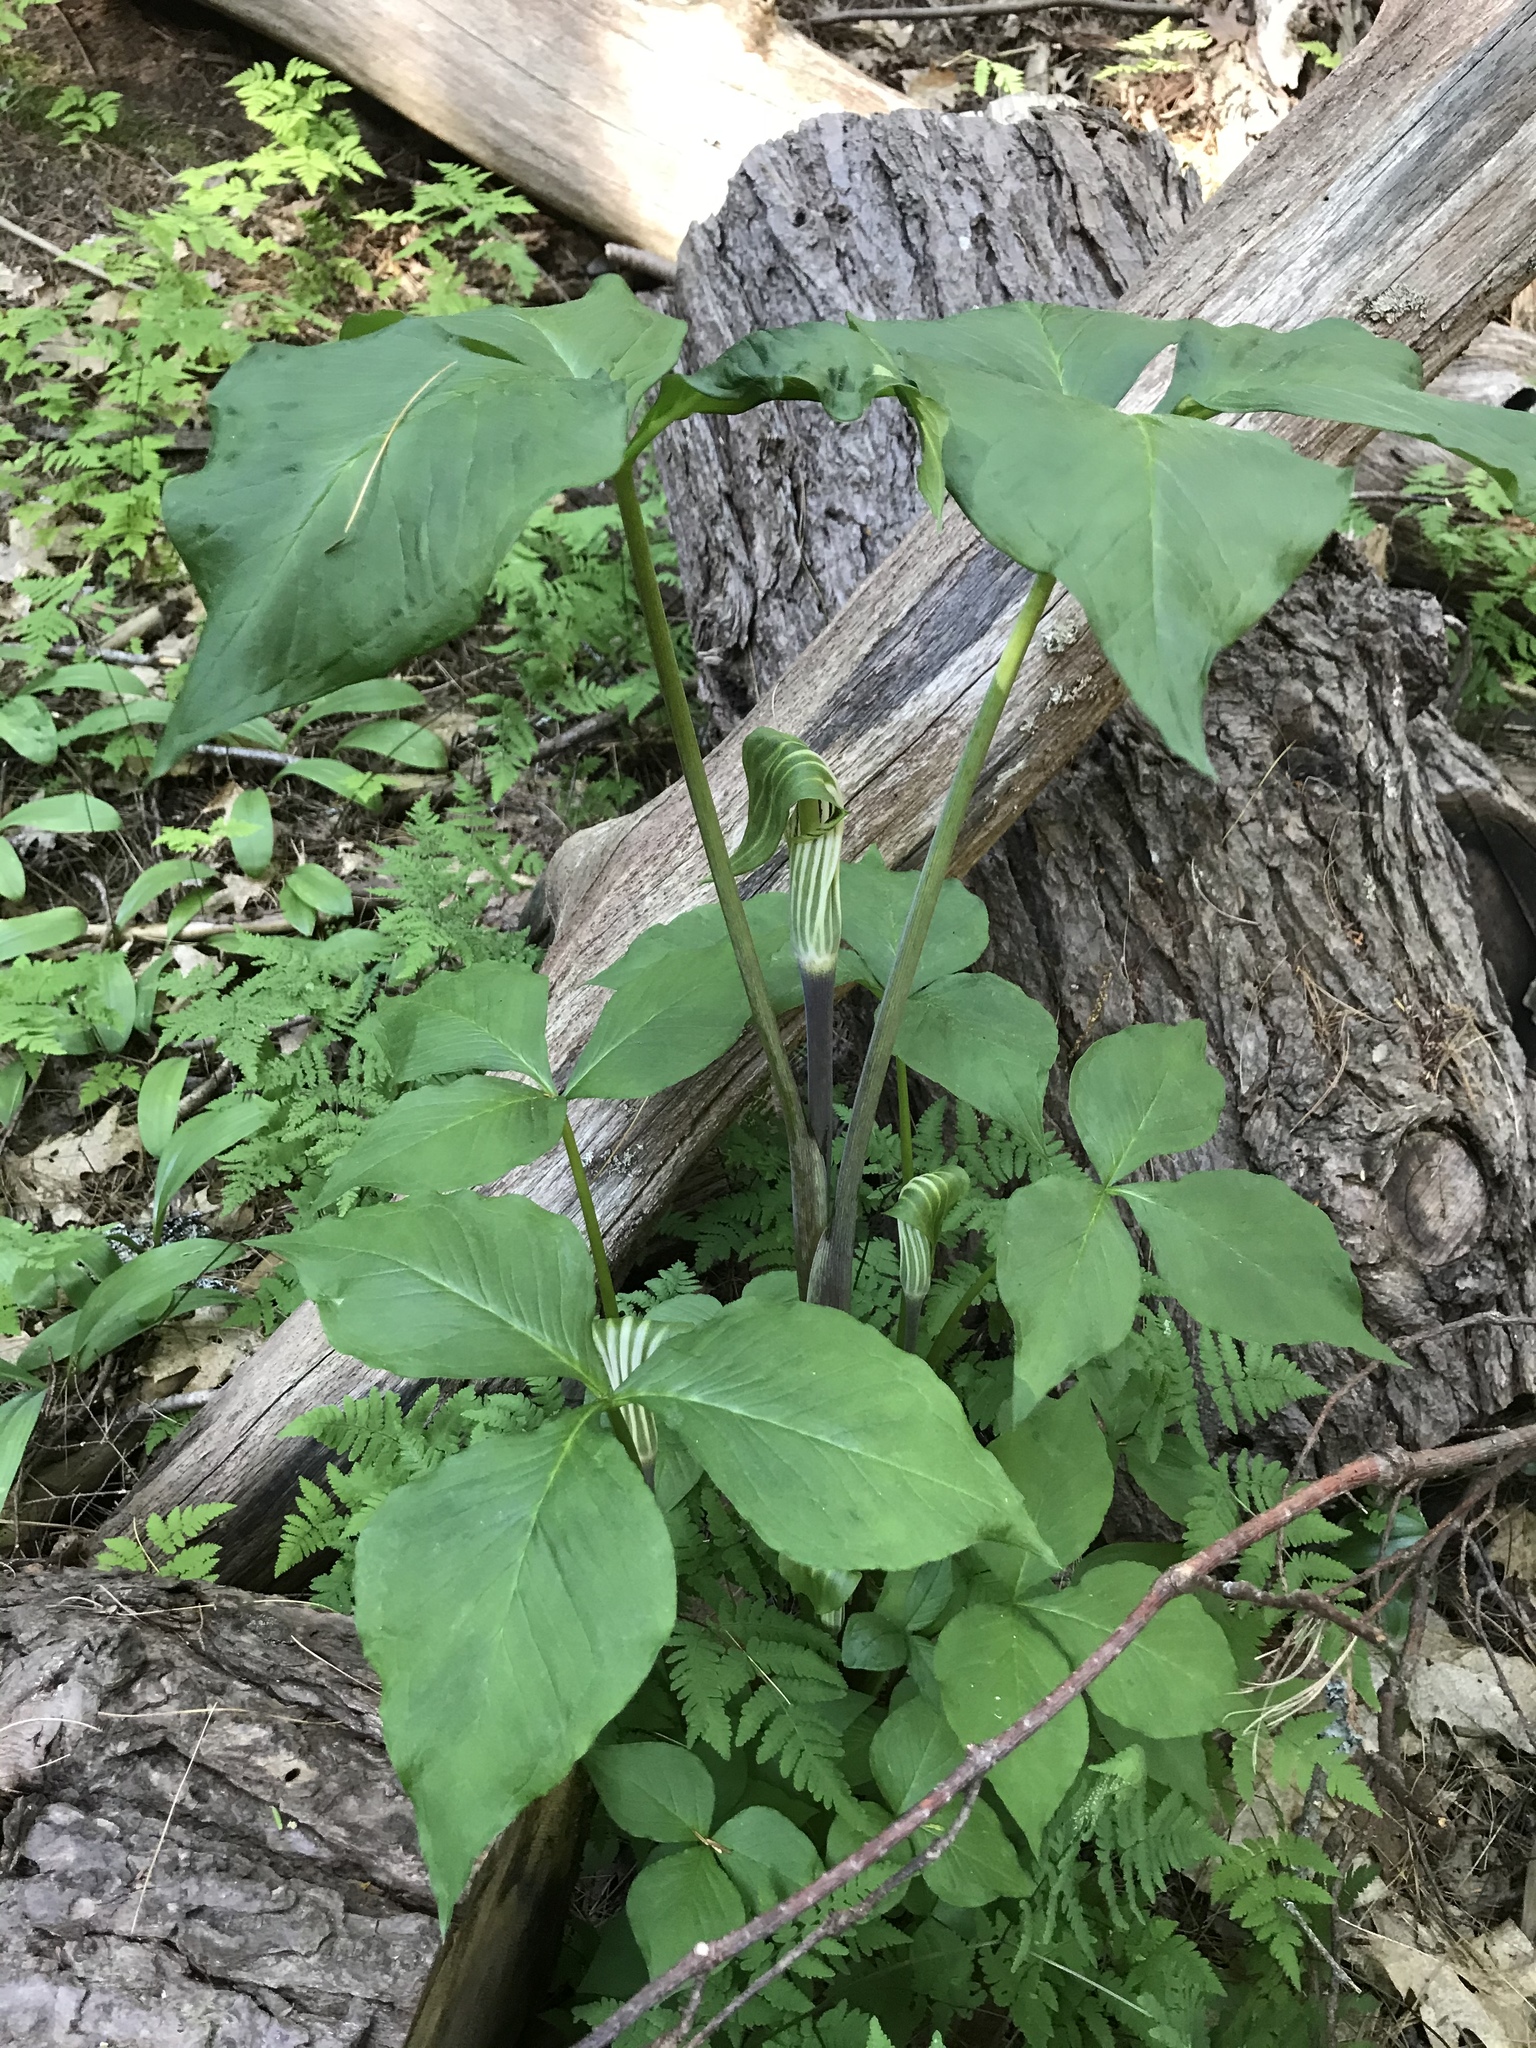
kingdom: Plantae
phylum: Tracheophyta
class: Liliopsida
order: Alismatales
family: Araceae
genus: Arisaema
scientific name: Arisaema stewardsonii
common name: Swamp jack-in-the-pulpit
